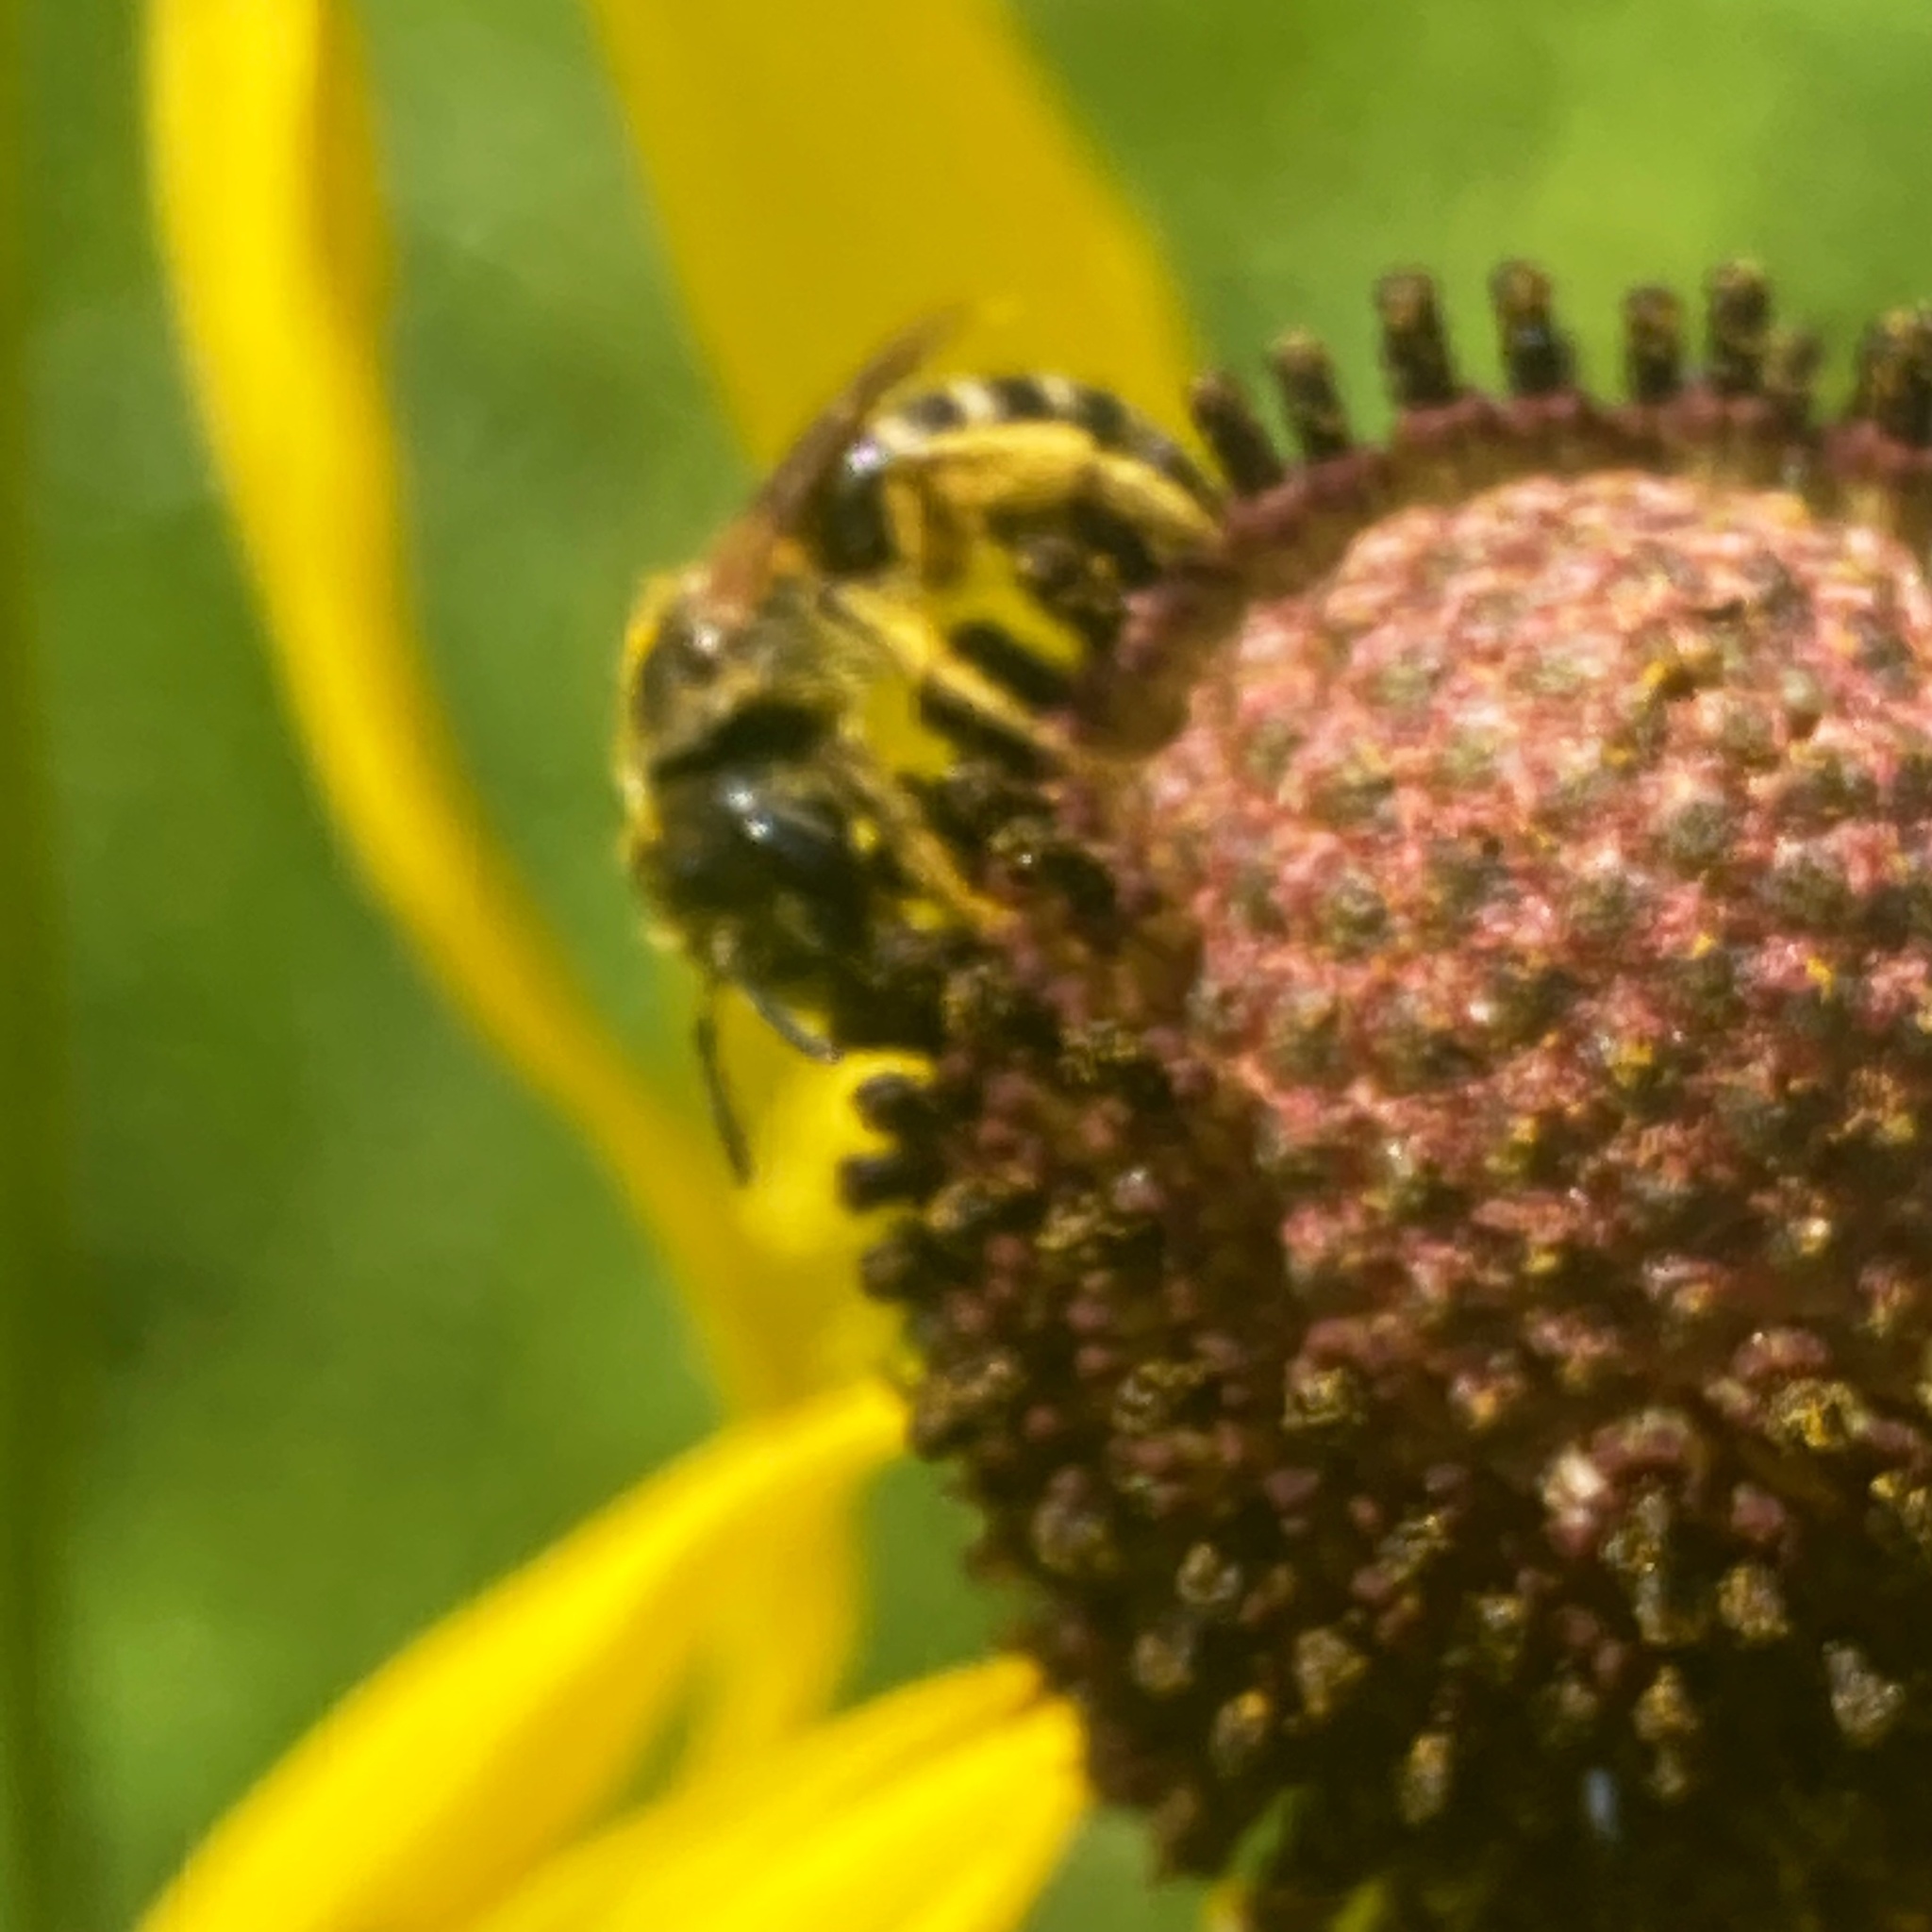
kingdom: Animalia
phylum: Arthropoda
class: Insecta
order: Hymenoptera
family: Halictidae
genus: Halictus
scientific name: Halictus ligatus
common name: Ligated furrow bee
